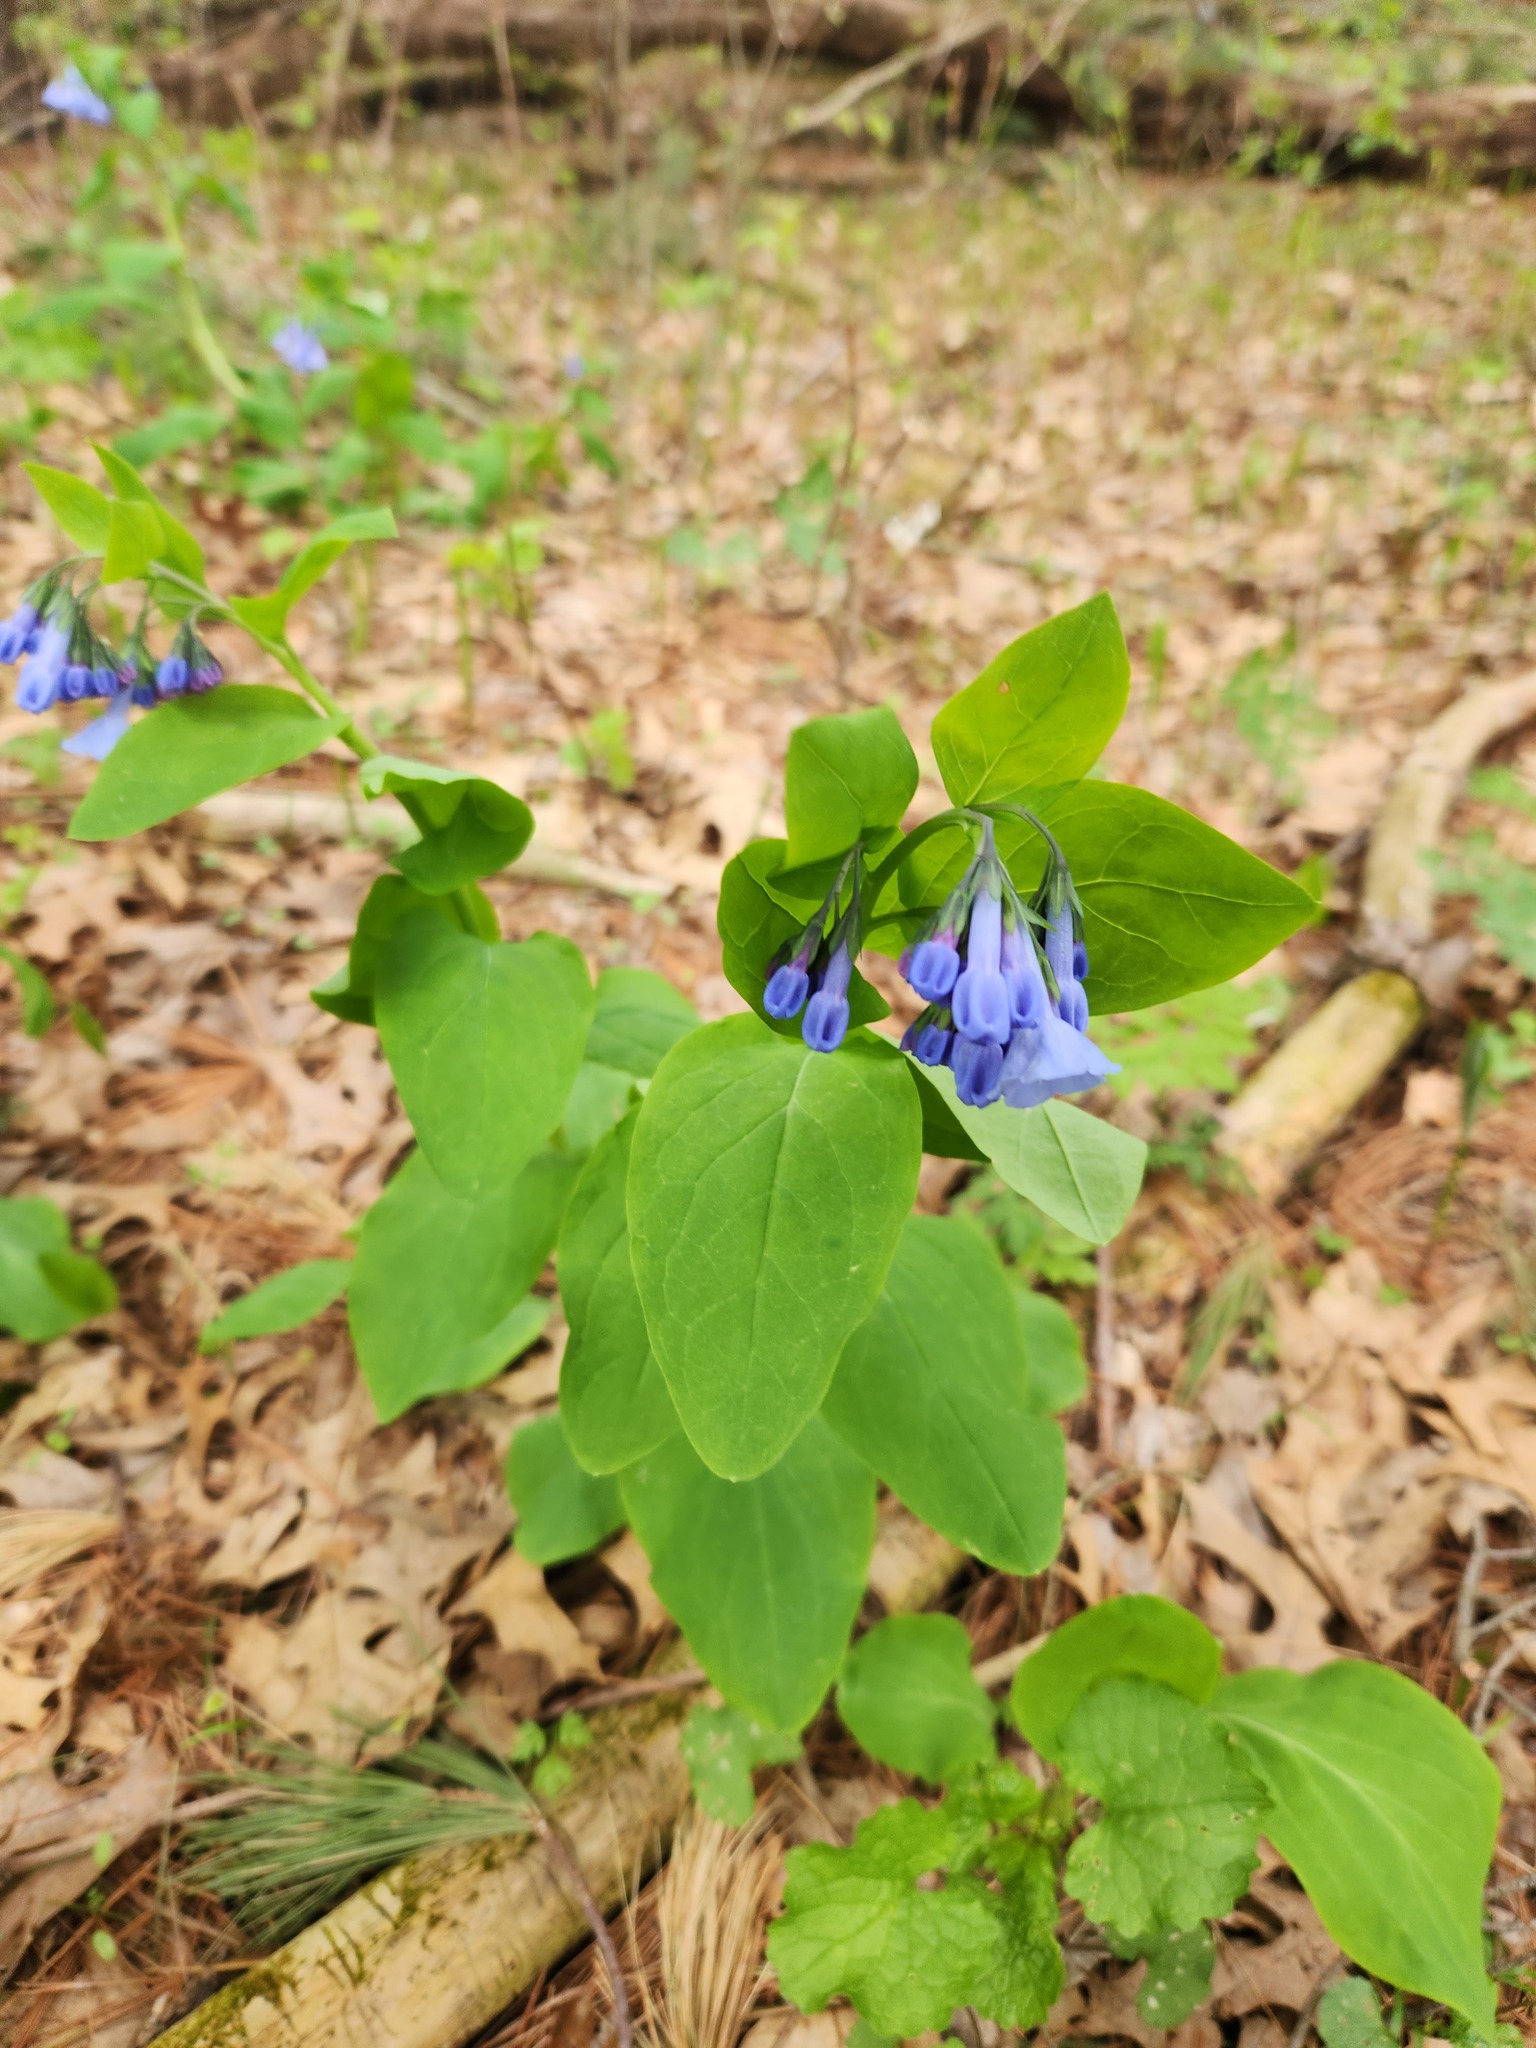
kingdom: Plantae
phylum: Tracheophyta
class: Magnoliopsida
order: Boraginales
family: Boraginaceae
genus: Mertensia
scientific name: Mertensia virginica
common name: Virginia bluebells
